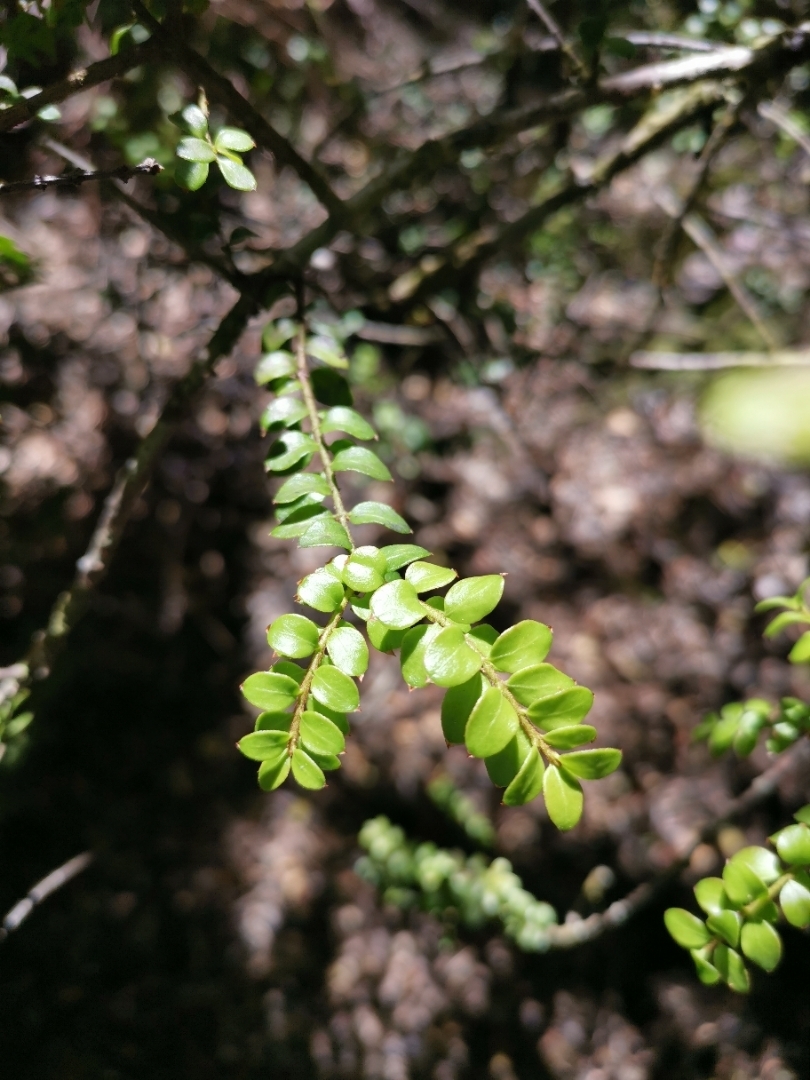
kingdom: Plantae
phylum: Tracheophyta
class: Magnoliopsida
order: Santalales
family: Santalaceae
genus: Lepidoceras
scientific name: Lepidoceras chilense
